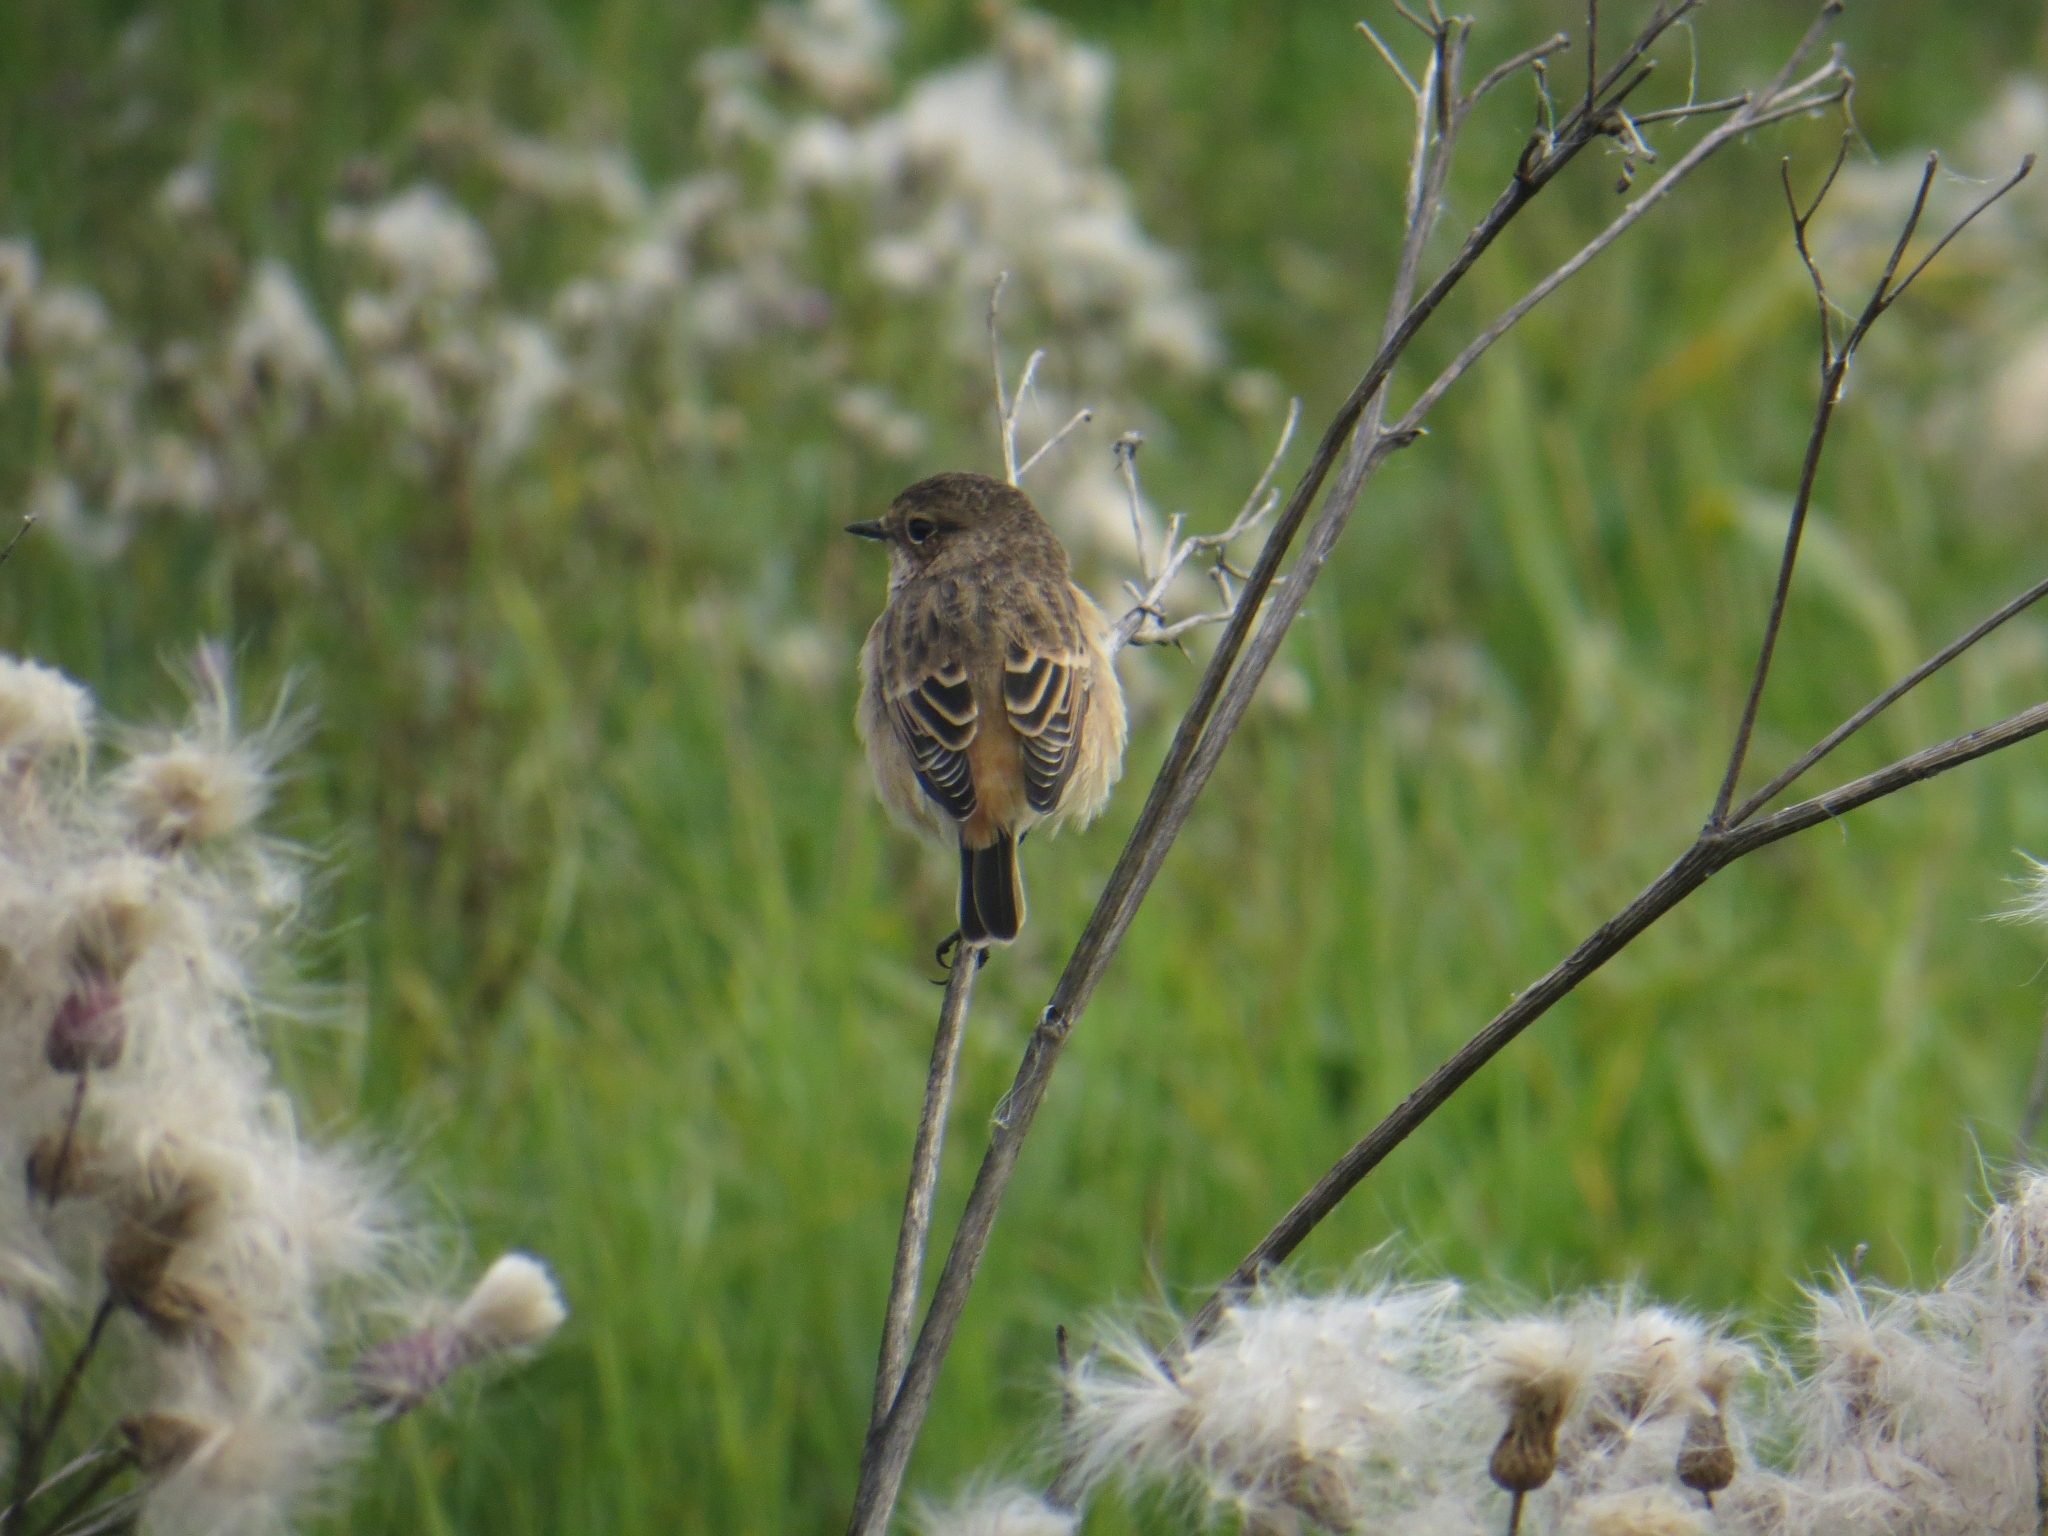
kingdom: Animalia
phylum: Chordata
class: Aves
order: Passeriformes
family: Muscicapidae
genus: Saxicola
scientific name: Saxicola maurus
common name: Siberian stonechat
